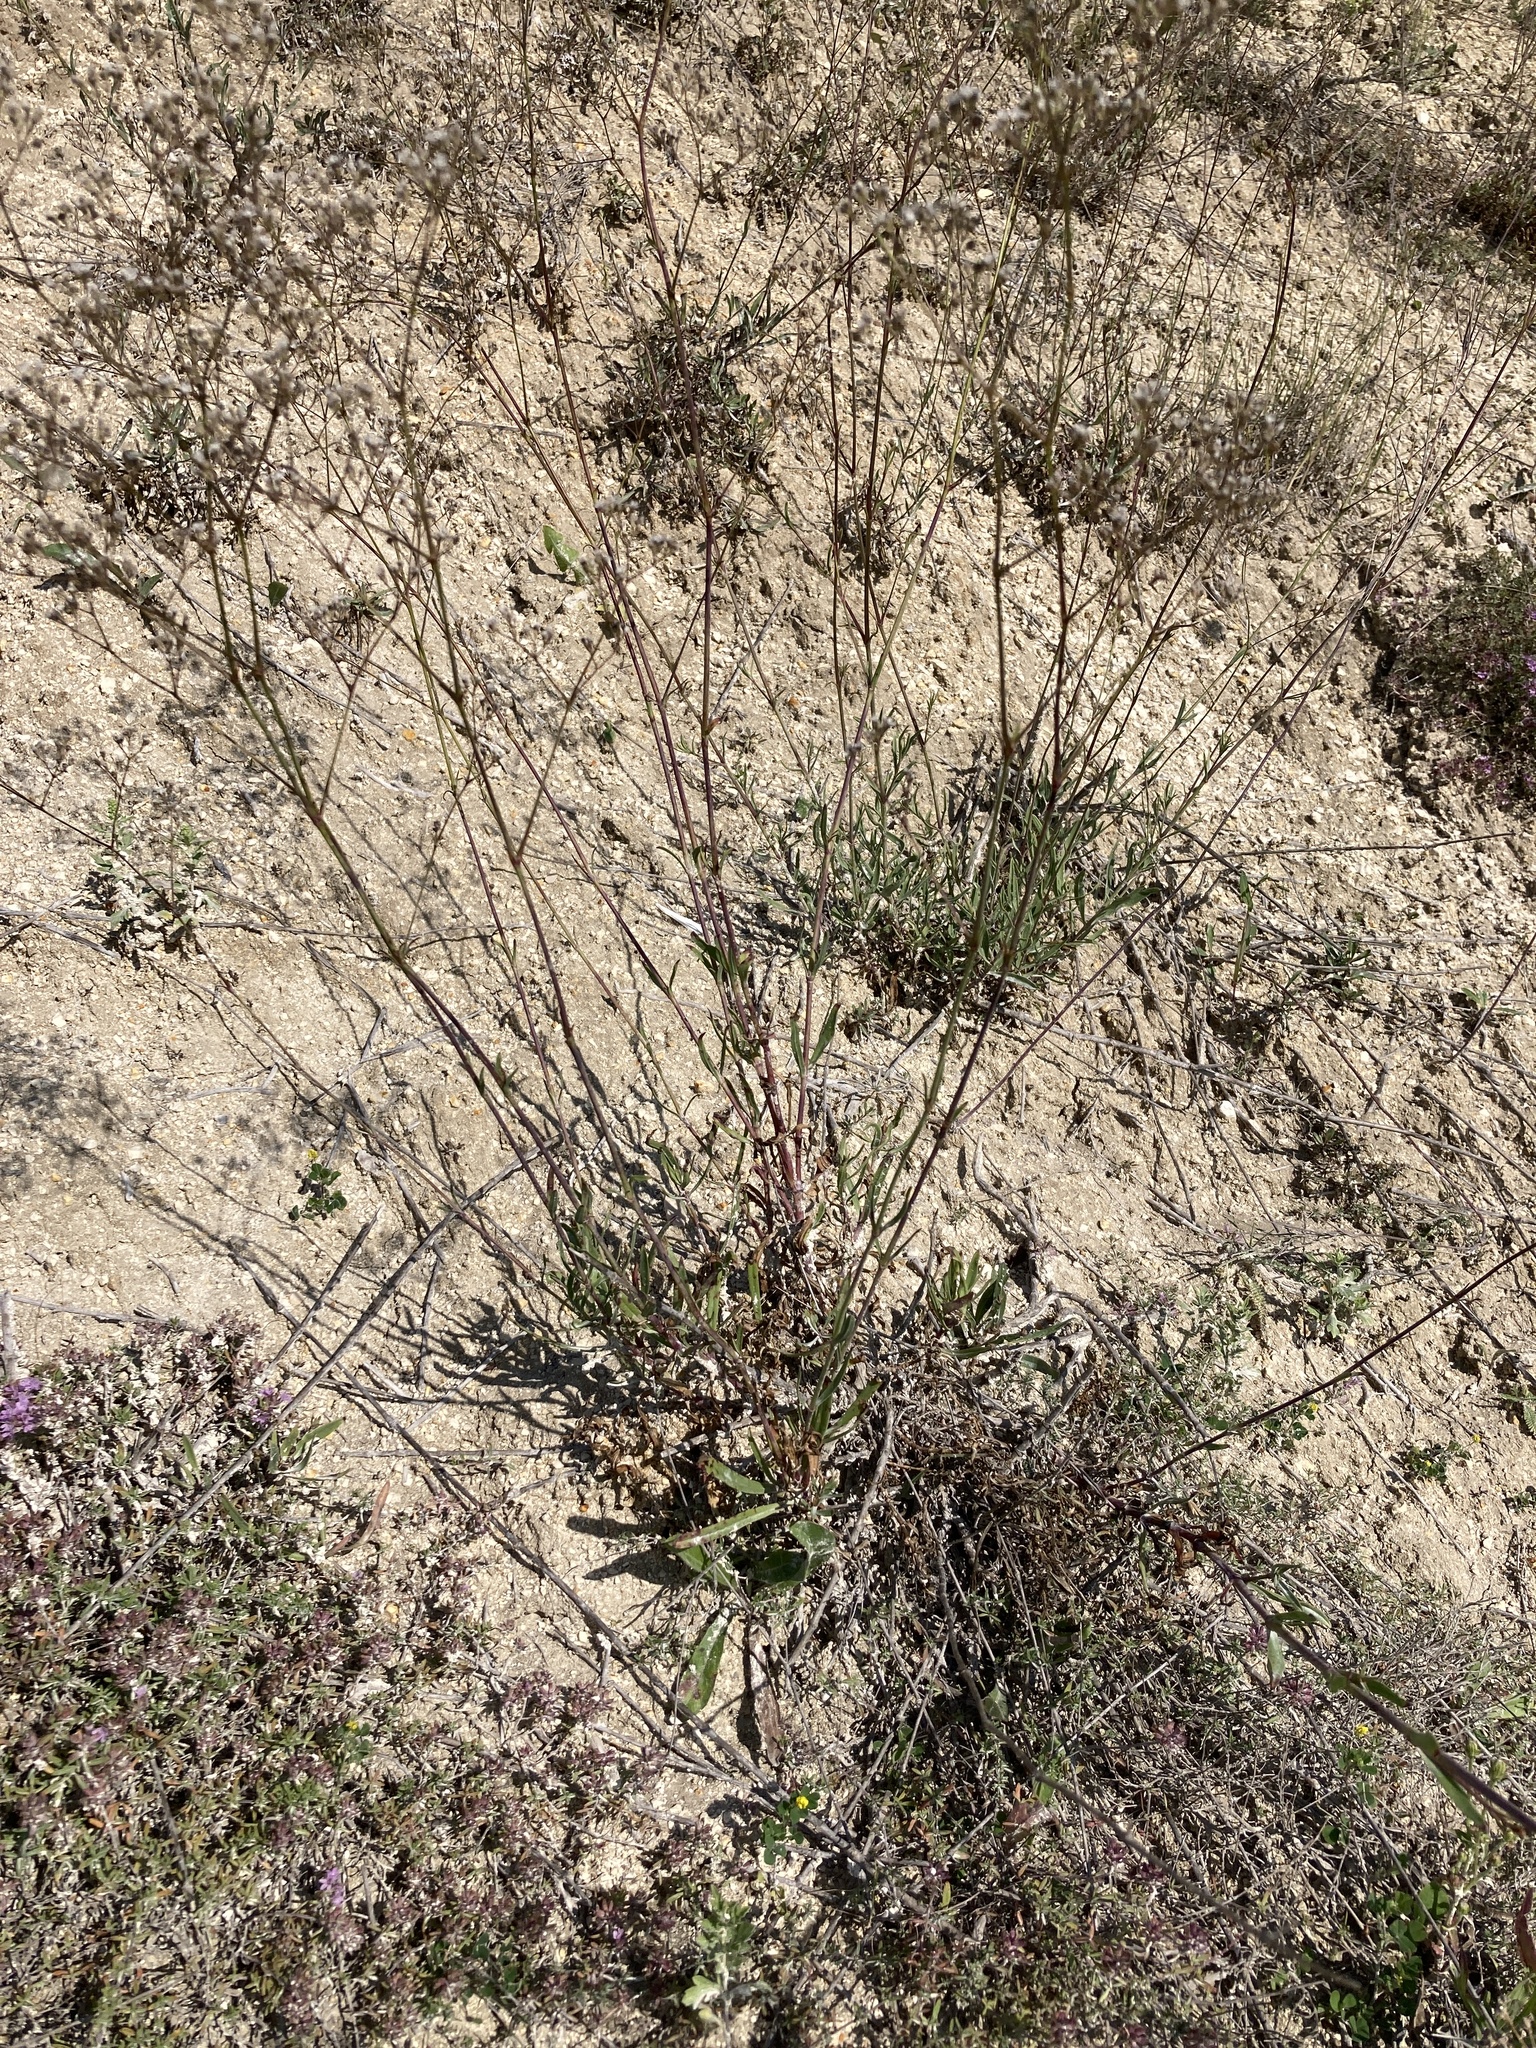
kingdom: Plantae
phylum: Tracheophyta
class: Magnoliopsida
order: Caryophyllales
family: Caryophyllaceae
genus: Gypsophila
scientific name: Gypsophila altissima
